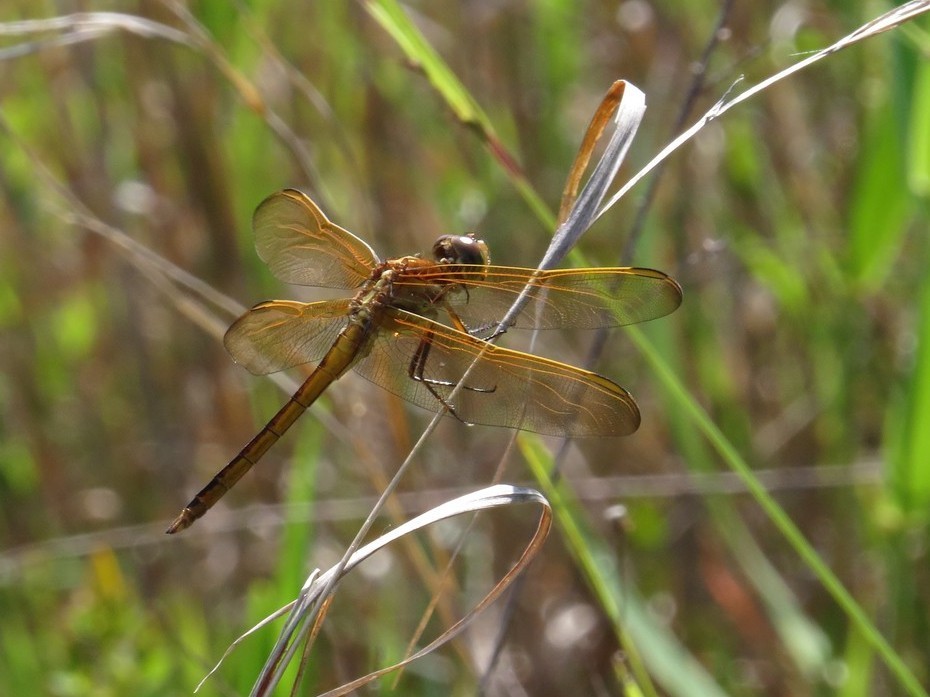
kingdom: Animalia
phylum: Arthropoda
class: Insecta
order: Odonata
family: Libellulidae
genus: Libellula
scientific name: Libellula auripennis
